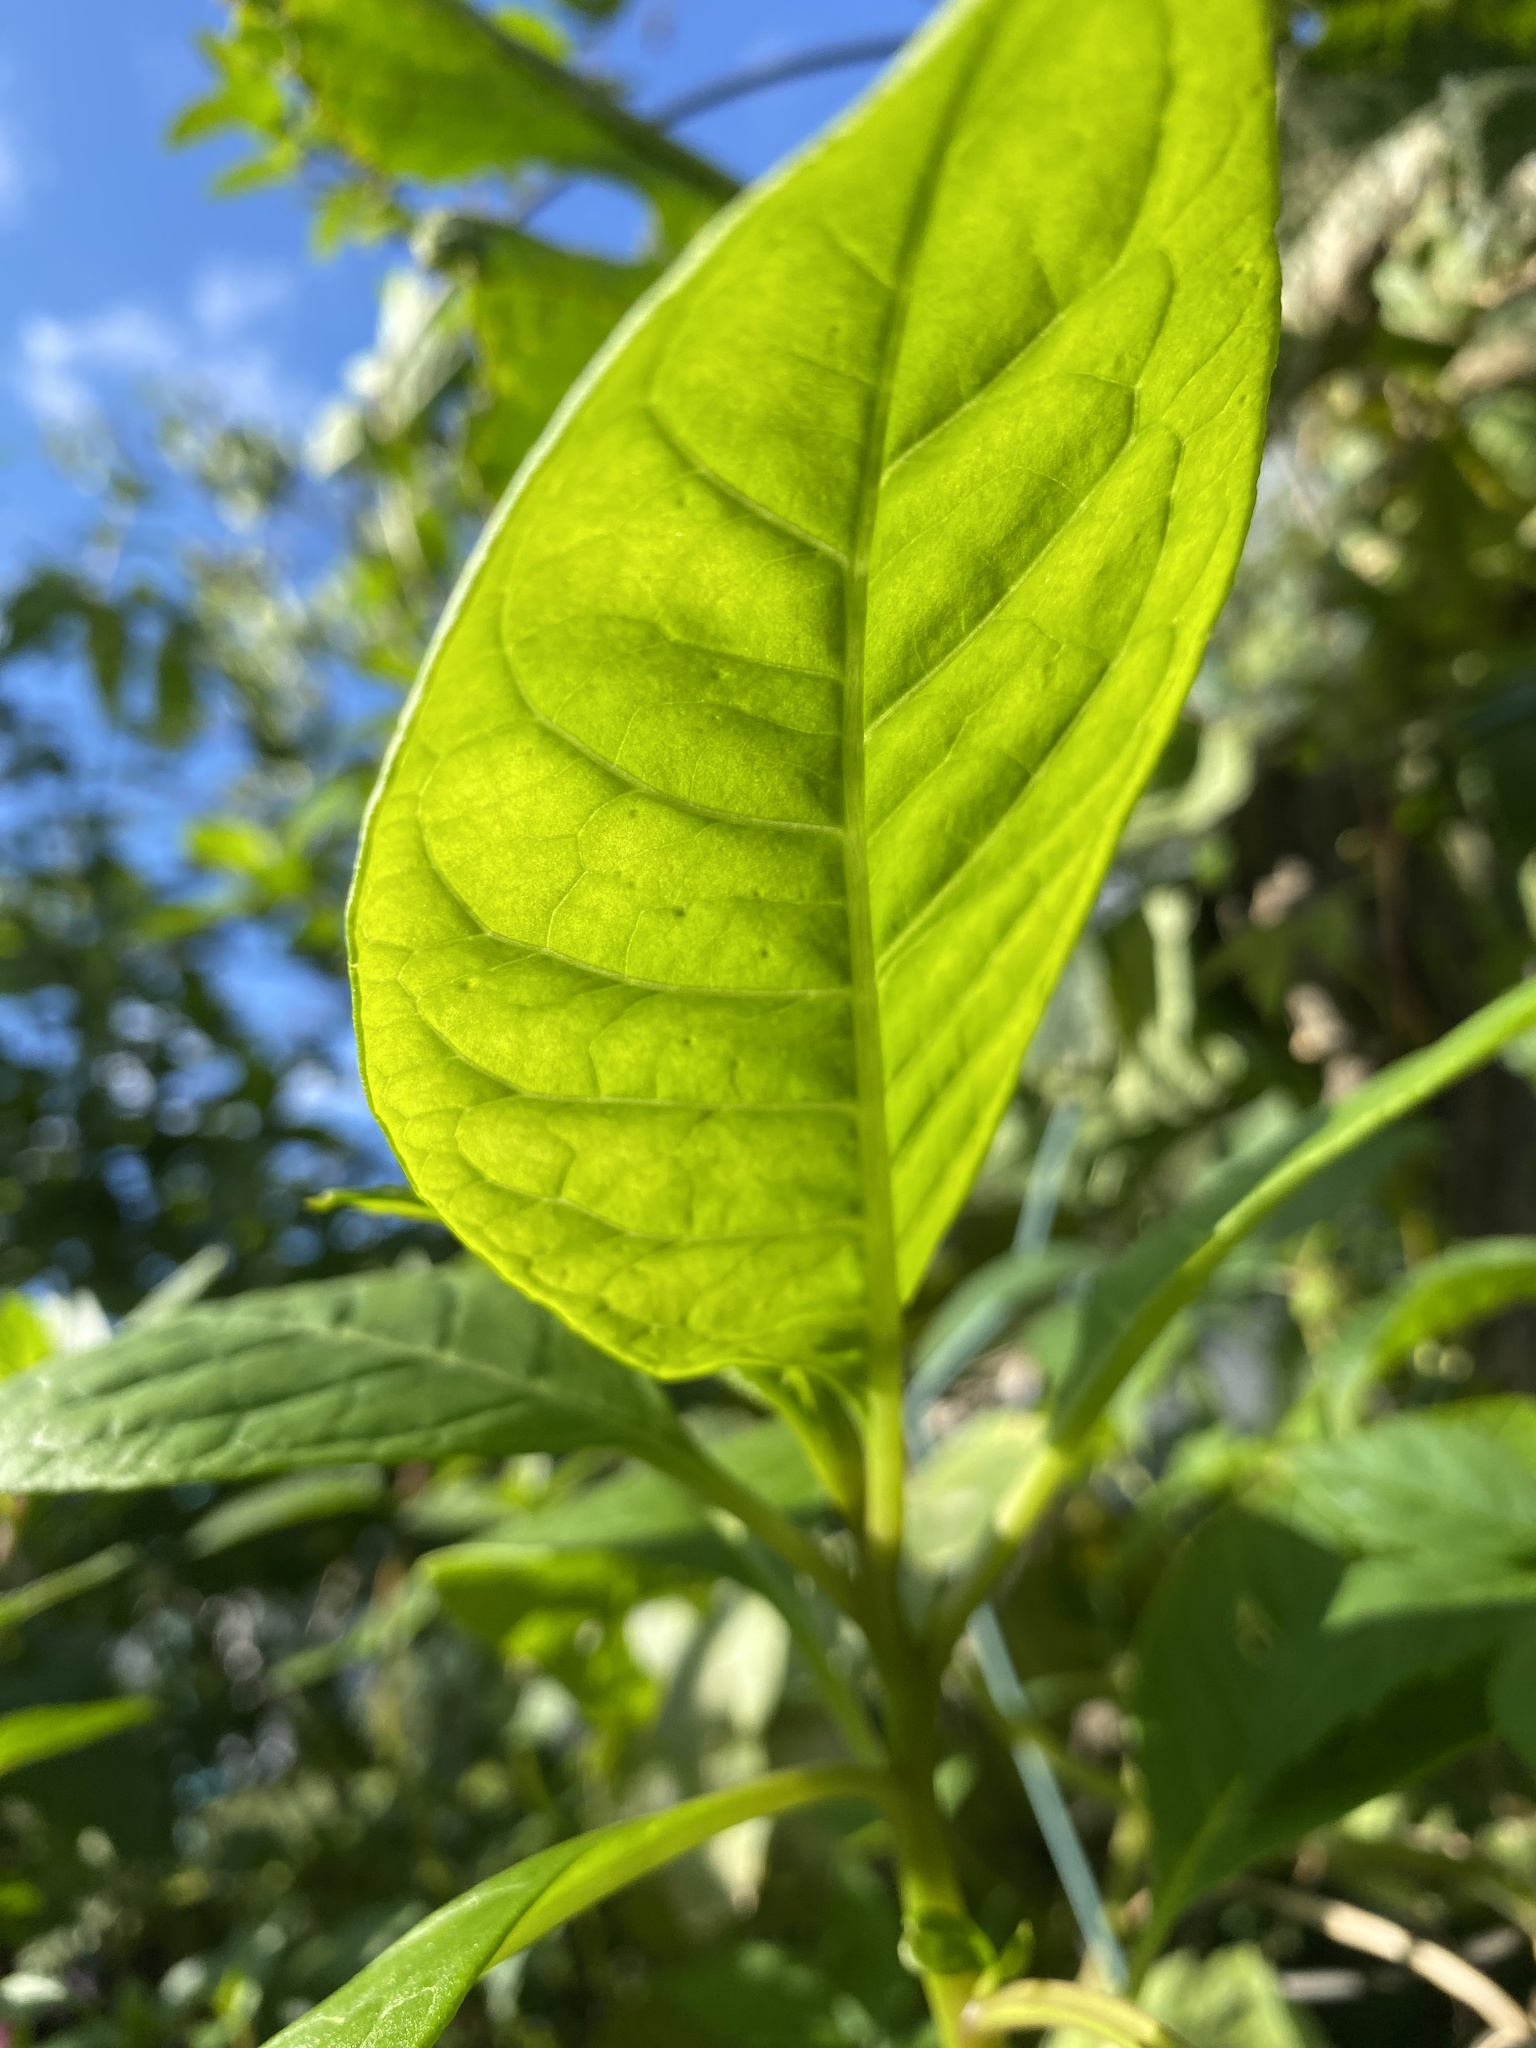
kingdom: Plantae
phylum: Tracheophyta
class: Magnoliopsida
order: Caryophyllales
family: Phytolaccaceae
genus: Phytolacca
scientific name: Phytolacca americana
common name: American pokeweed
